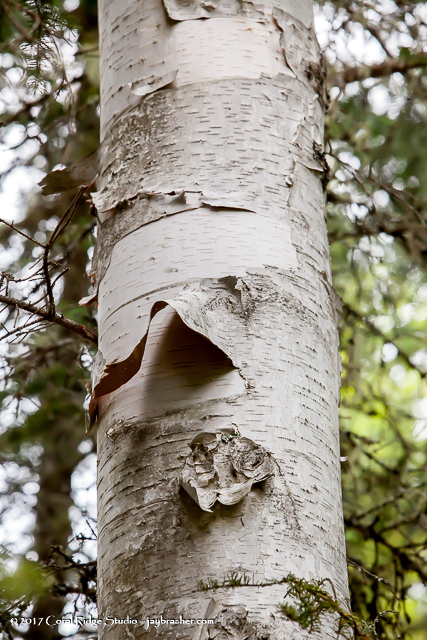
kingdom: Plantae
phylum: Tracheophyta
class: Magnoliopsida
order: Fagales
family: Betulaceae
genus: Betula
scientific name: Betula papyrifera
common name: Paper birch
